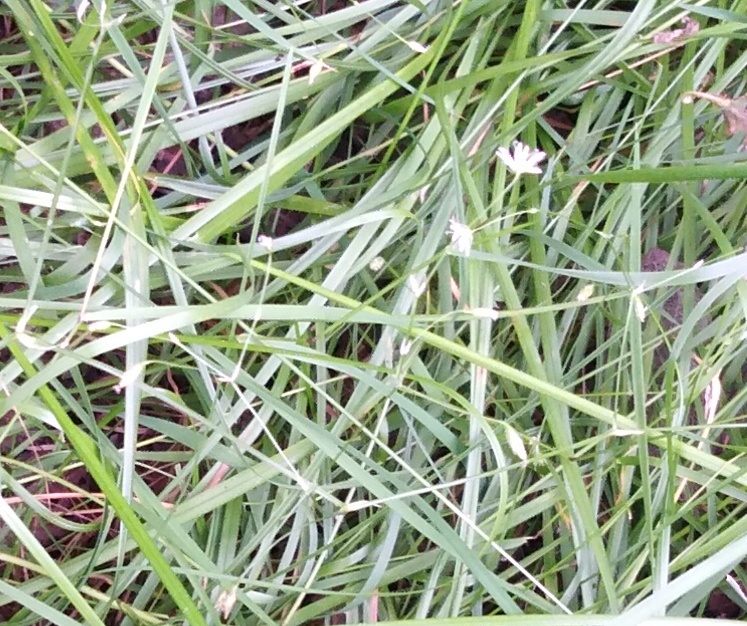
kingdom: Plantae
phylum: Tracheophyta
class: Magnoliopsida
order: Caryophyllales
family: Caryophyllaceae
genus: Stellaria
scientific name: Stellaria graminea
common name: Grass-like starwort
